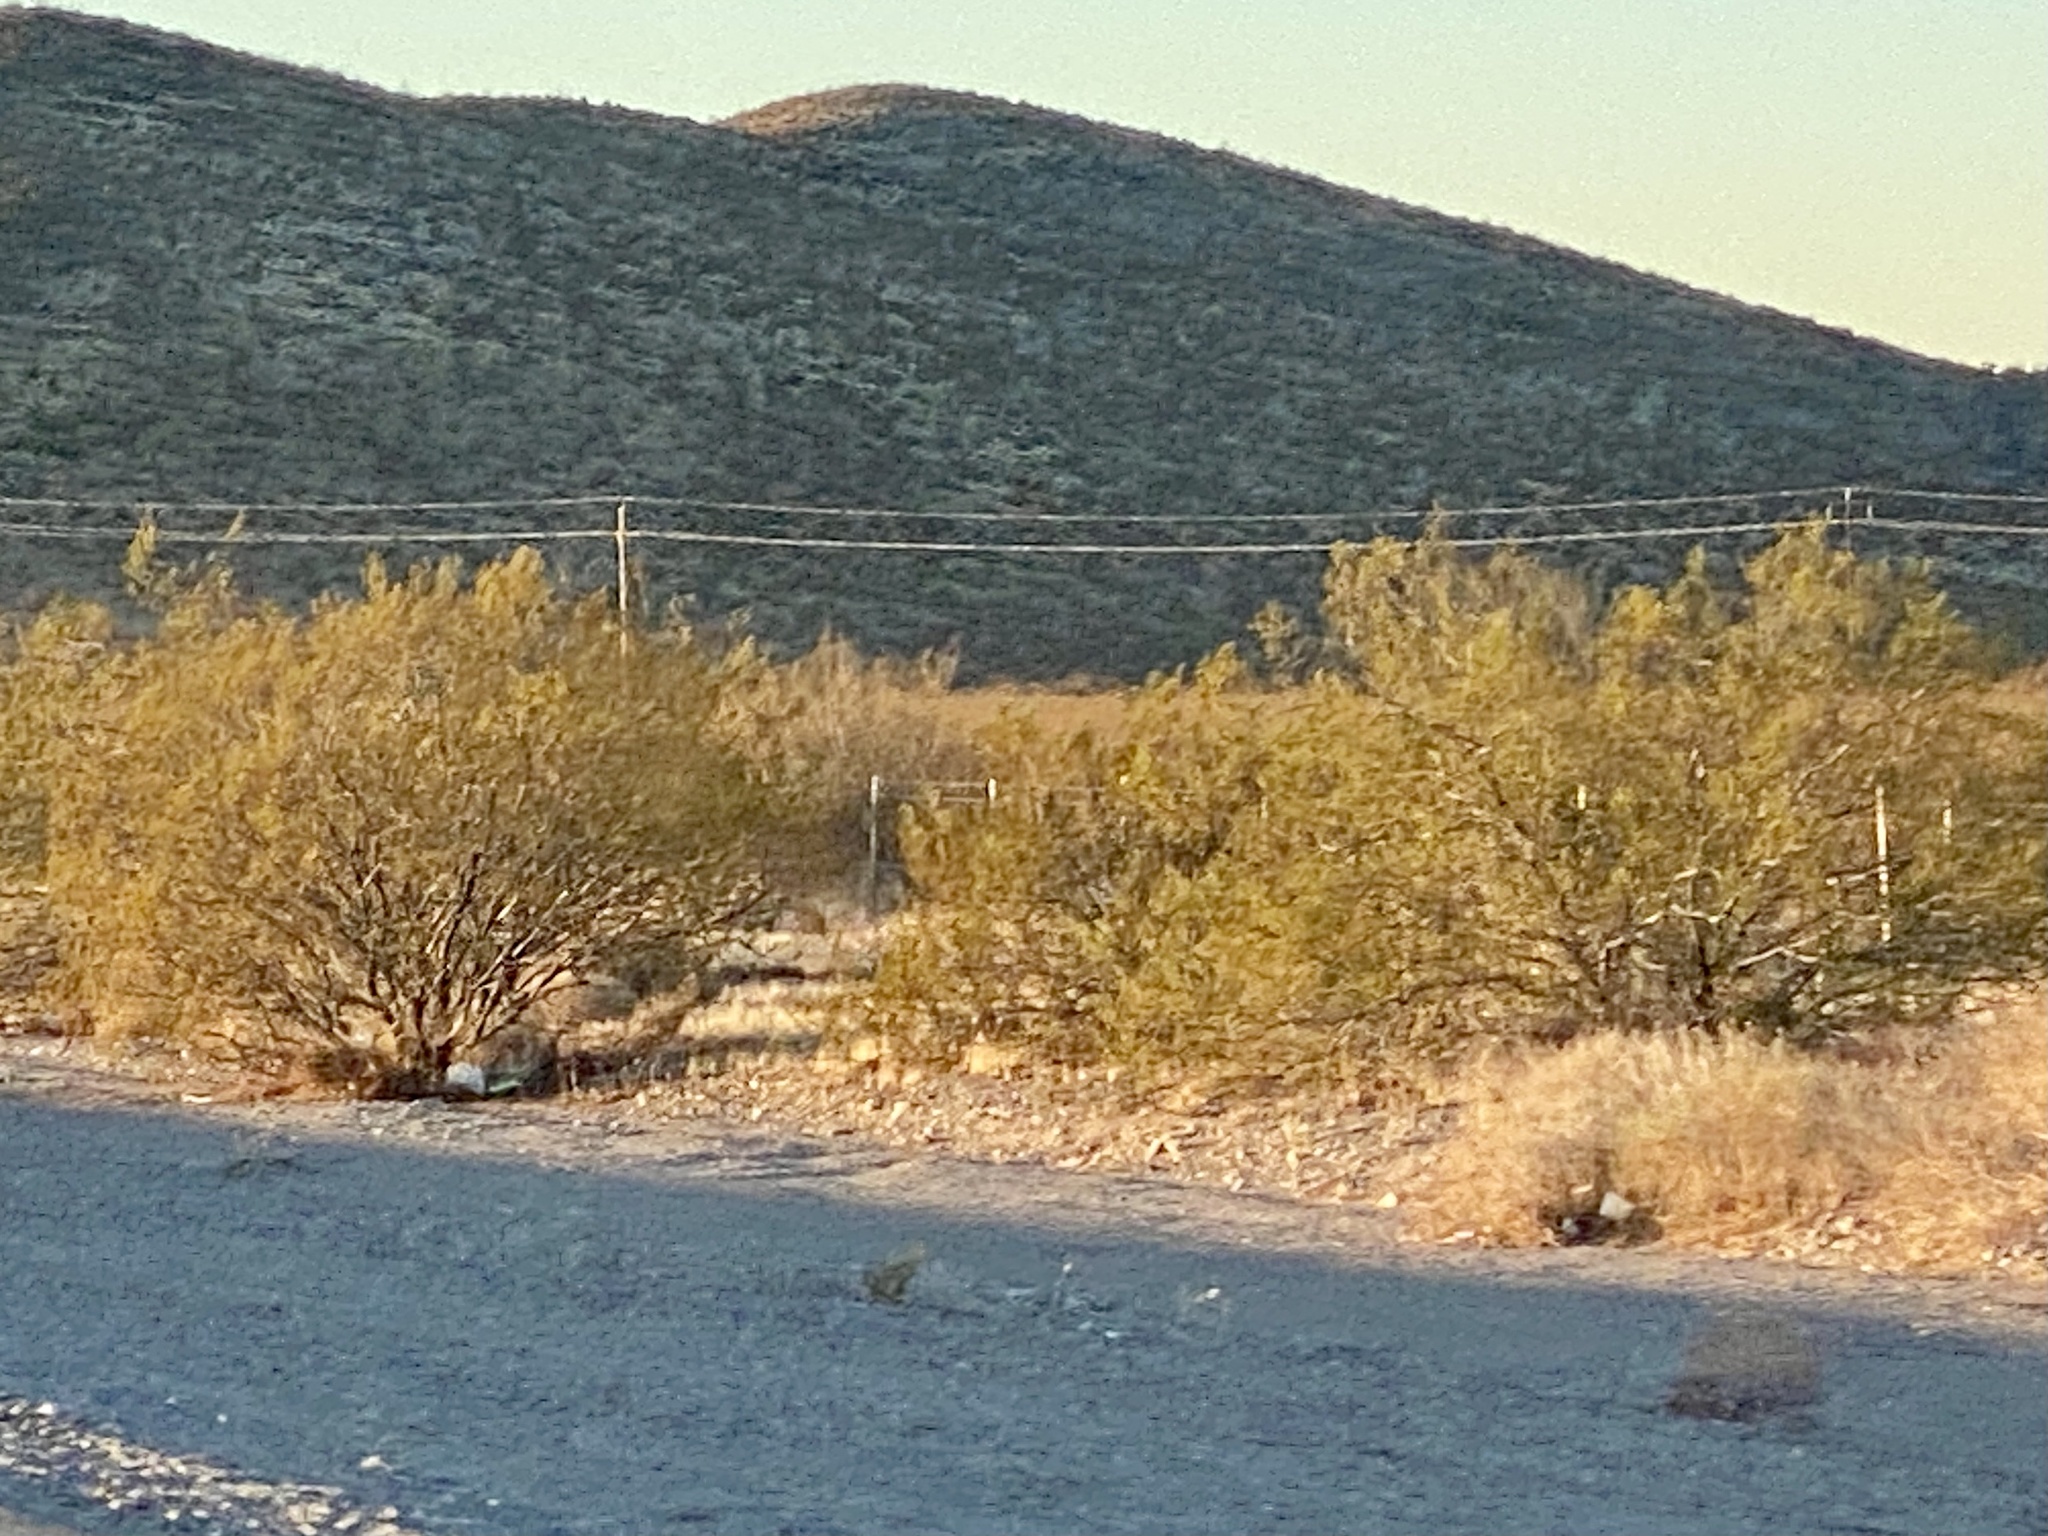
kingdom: Plantae
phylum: Tracheophyta
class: Magnoliopsida
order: Zygophyllales
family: Zygophyllaceae
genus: Larrea
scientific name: Larrea tridentata
